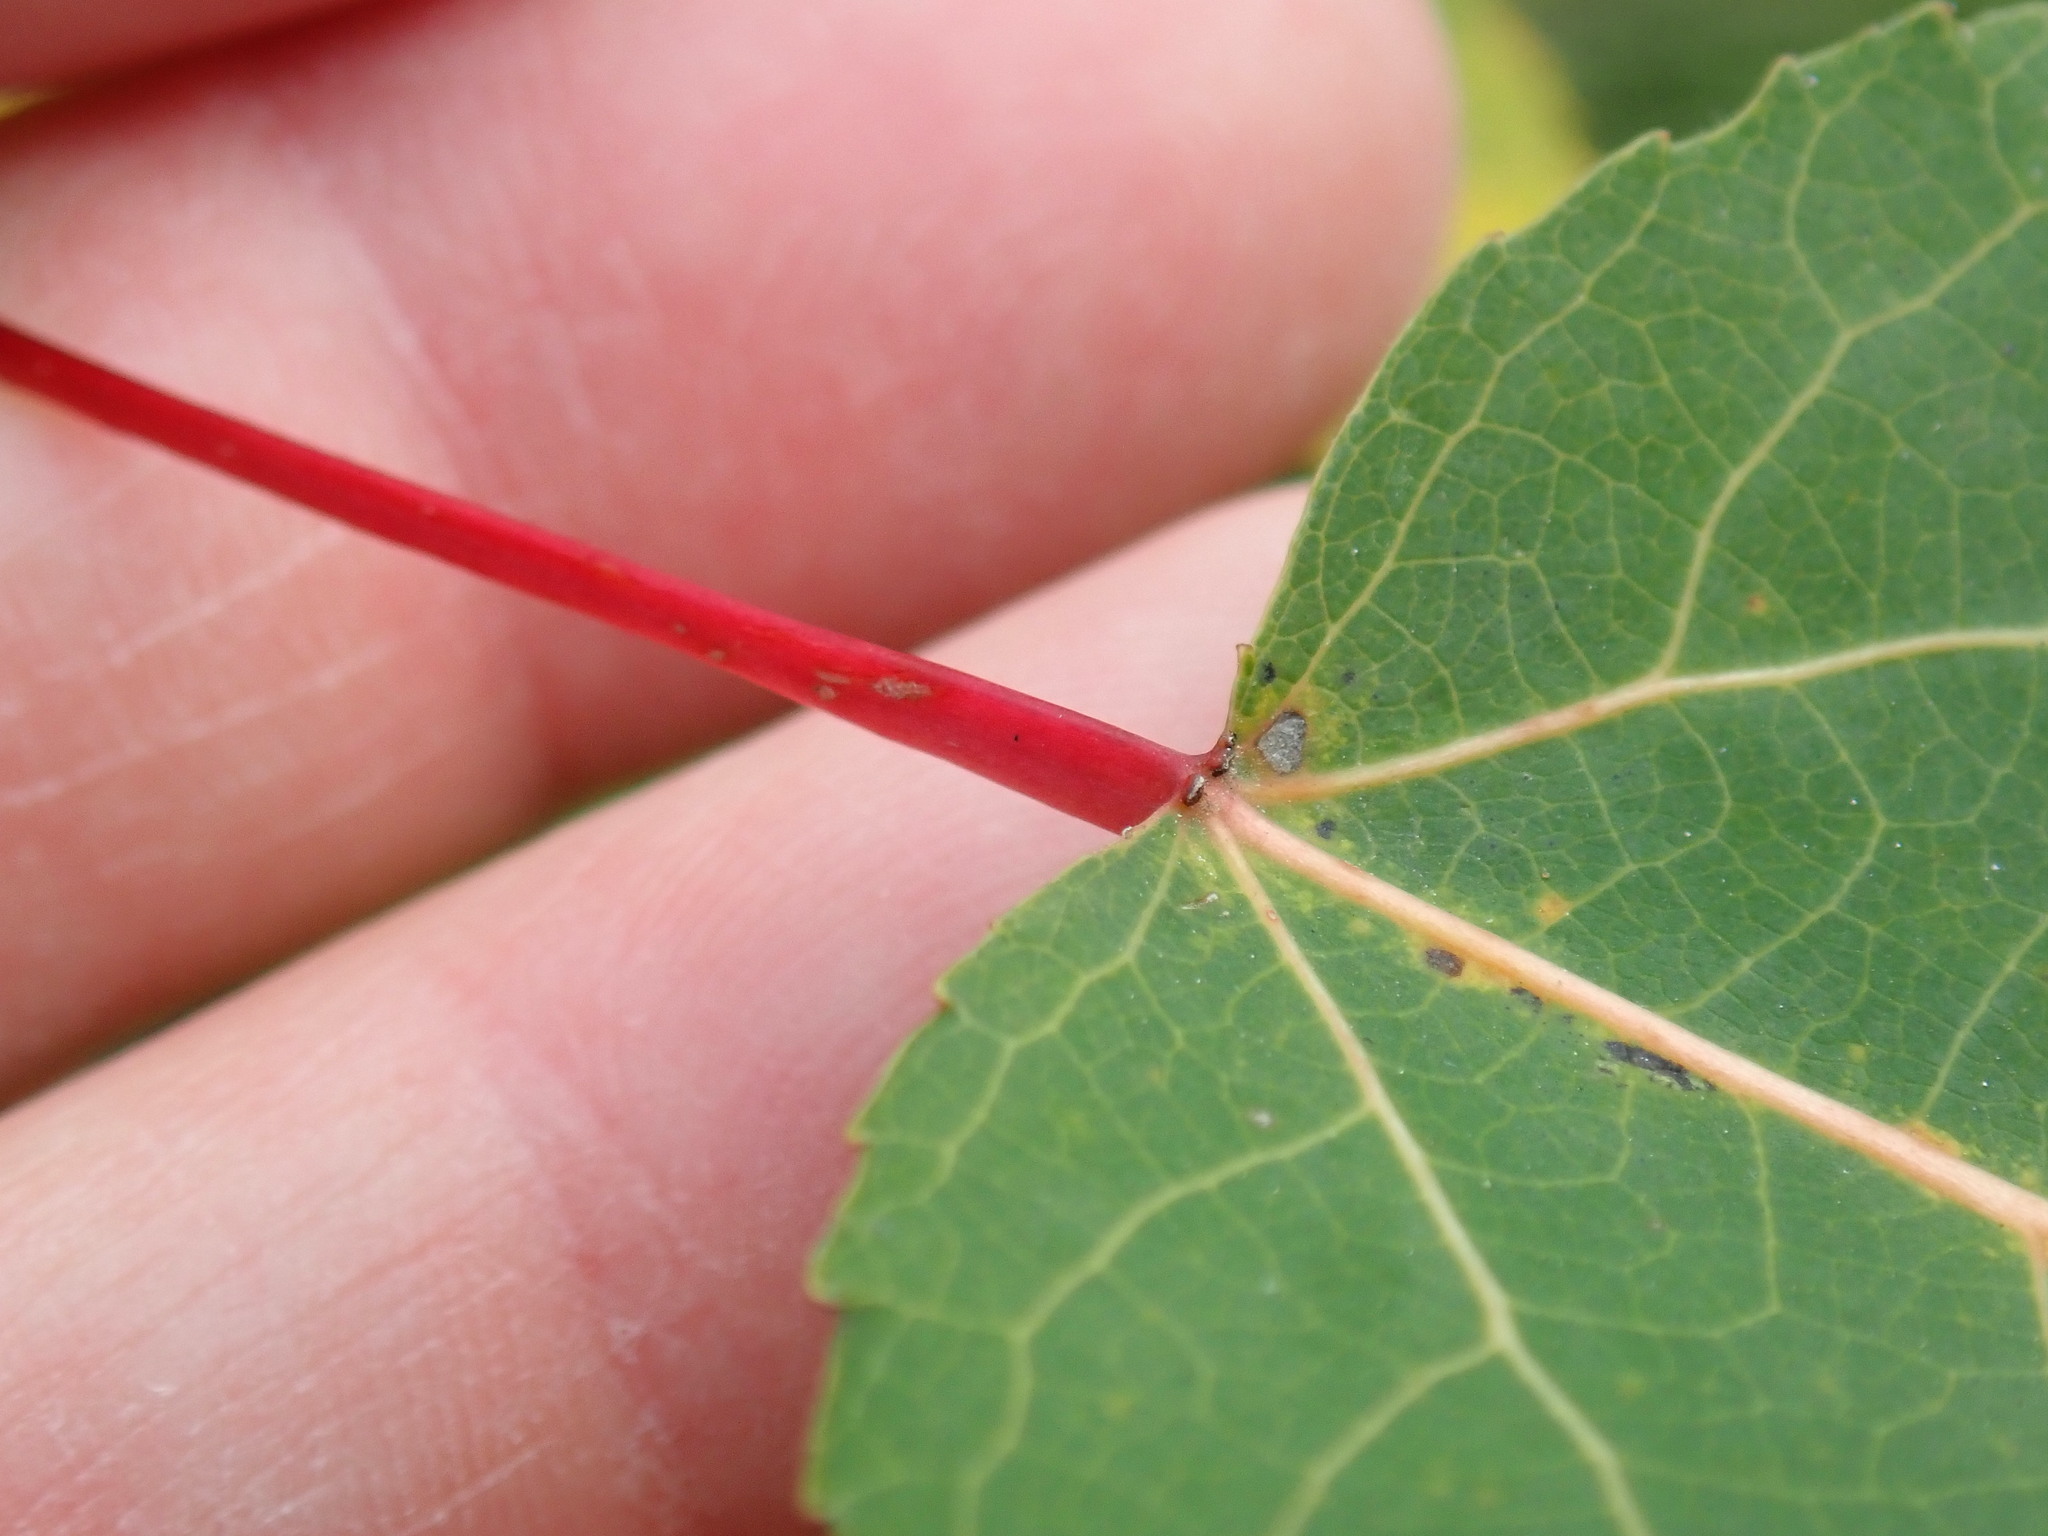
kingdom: Plantae
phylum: Tracheophyta
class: Magnoliopsida
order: Malpighiales
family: Salicaceae
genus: Populus
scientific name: Populus tremuloides
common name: Quaking aspen
